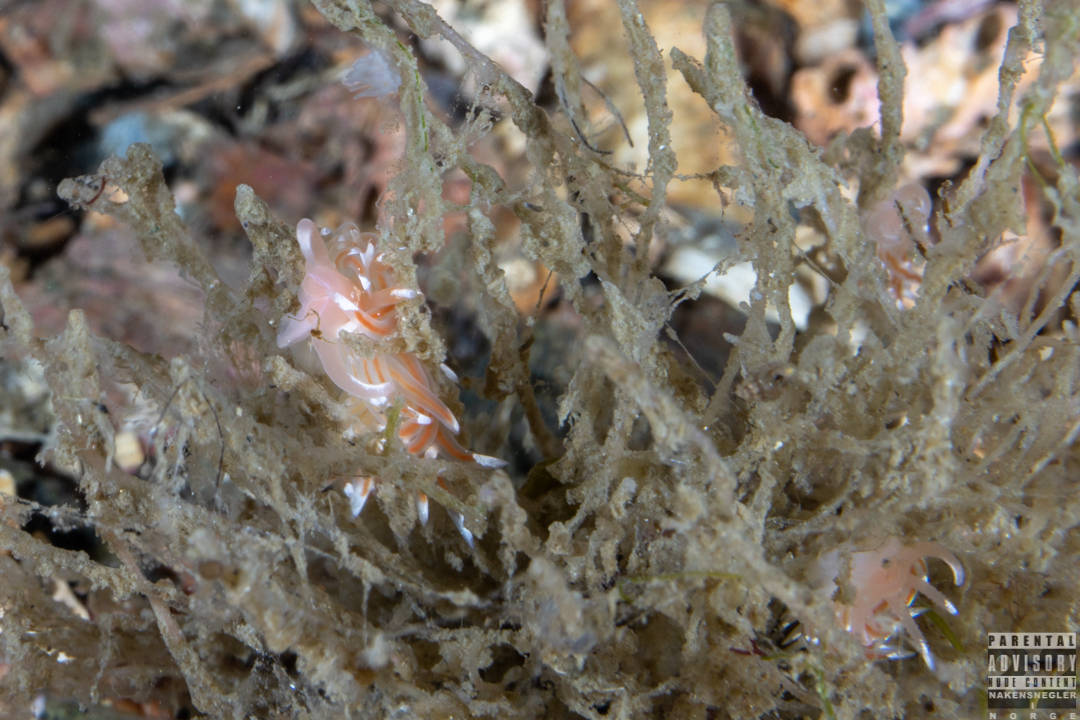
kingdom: Animalia
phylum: Mollusca
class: Gastropoda
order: Nudibranchia
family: Facelinidae
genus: Facelina
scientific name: Facelina bostoniensis
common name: Boston facelina
